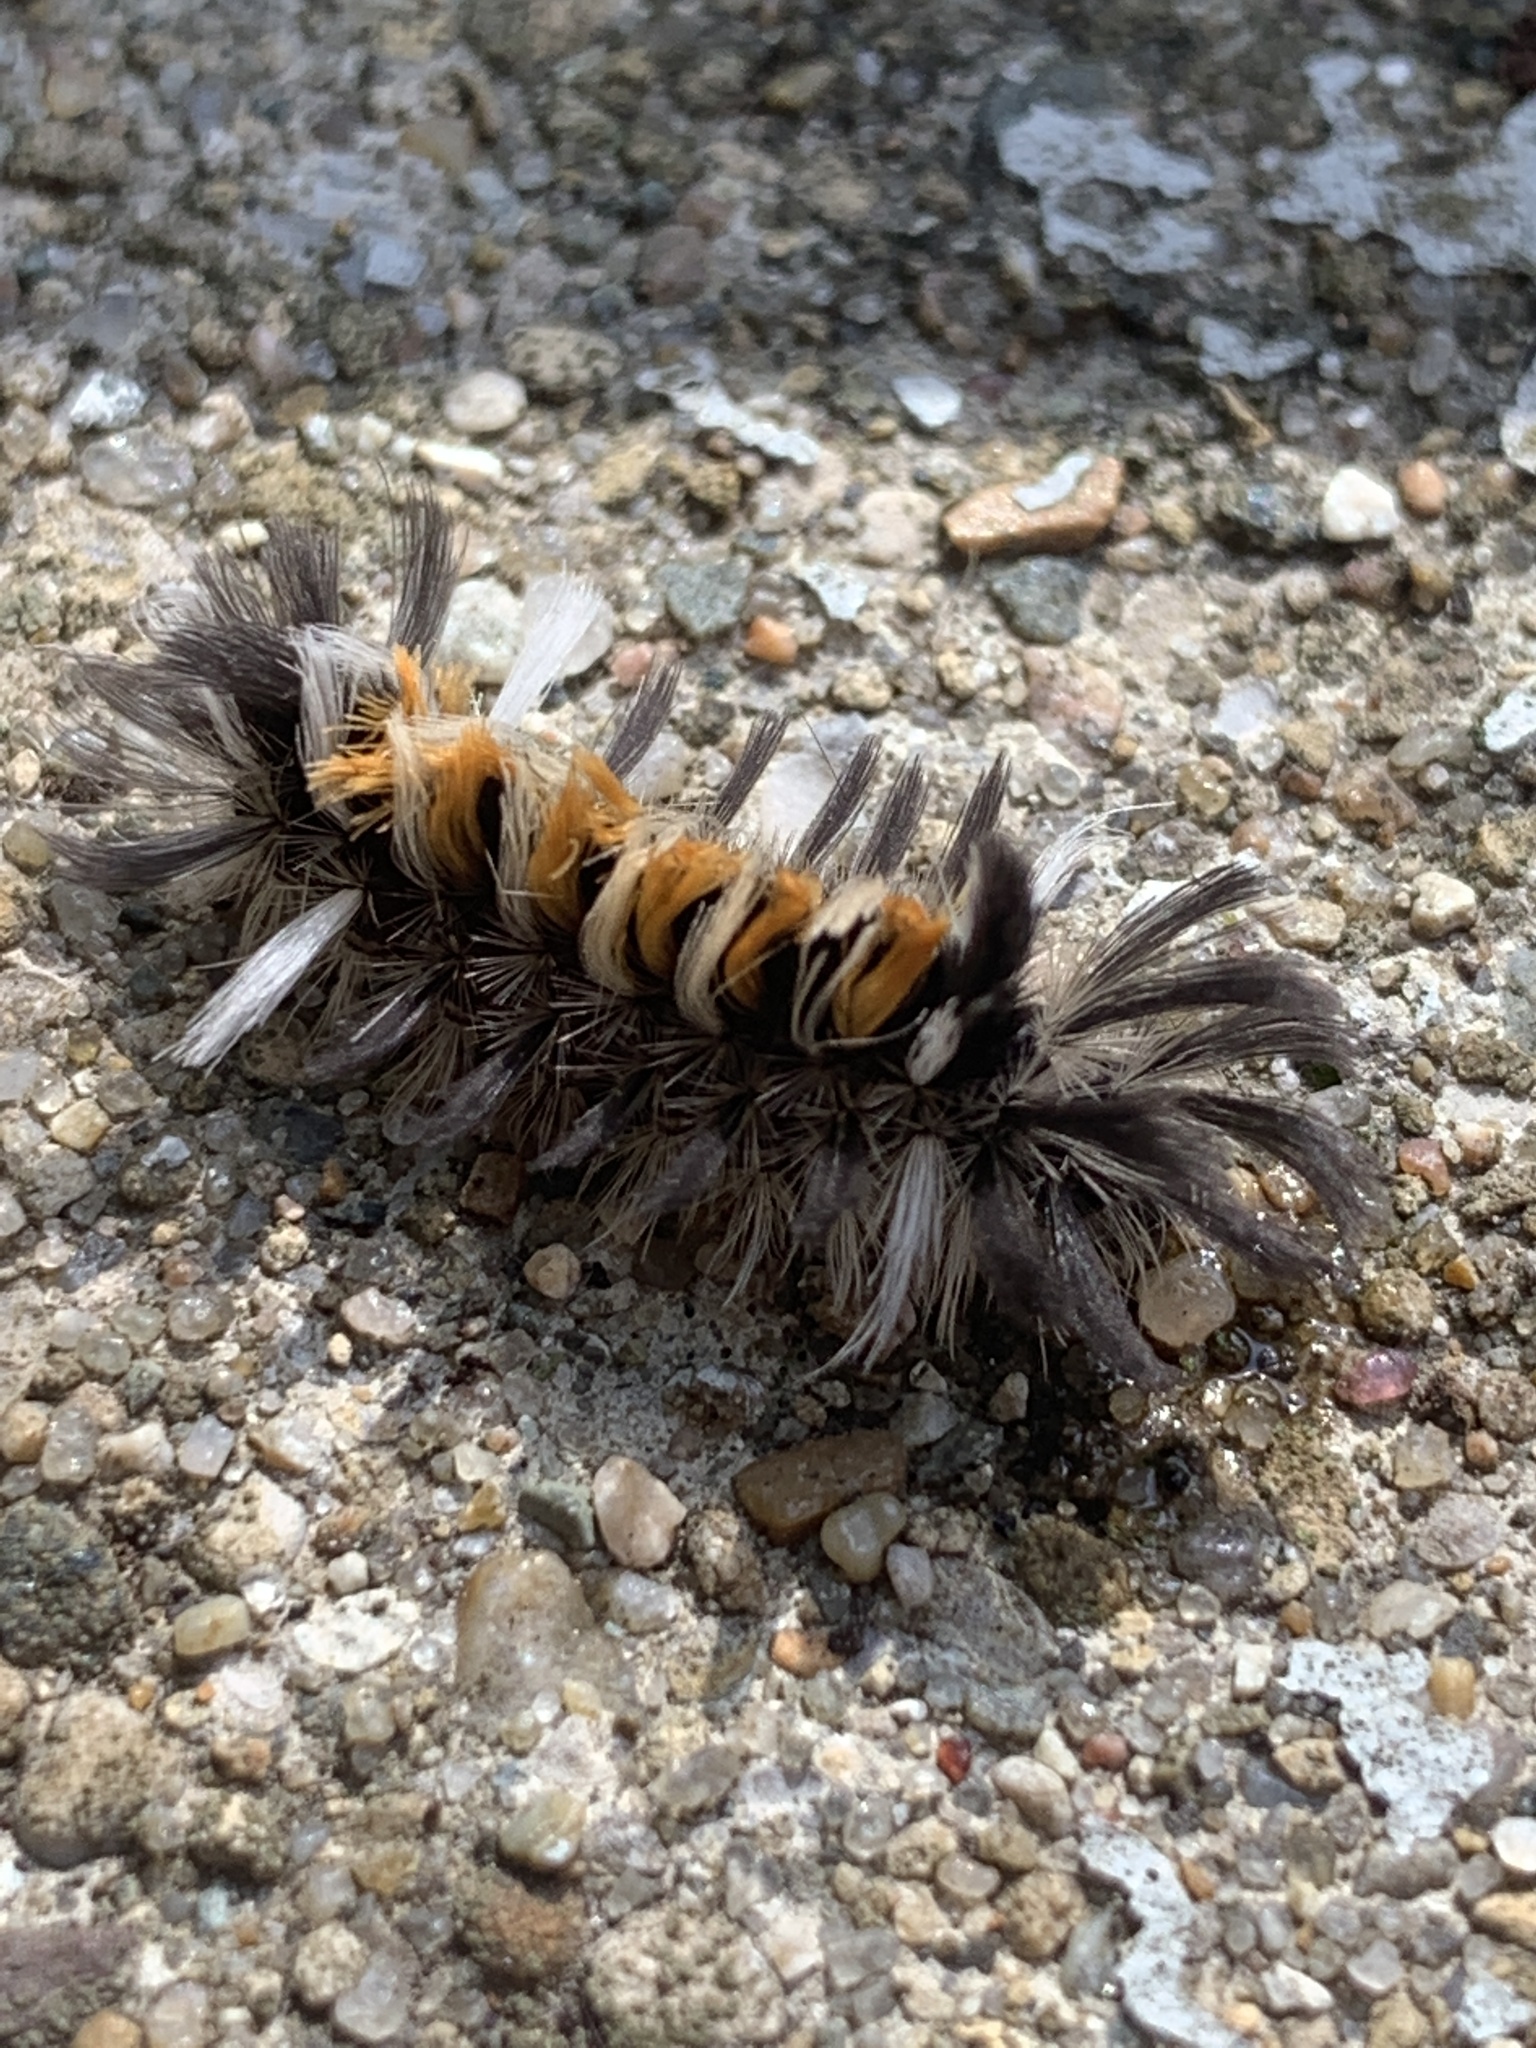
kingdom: Animalia
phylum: Arthropoda
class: Insecta
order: Lepidoptera
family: Erebidae
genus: Euchaetes
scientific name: Euchaetes egle
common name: Milkweed tussock moth
